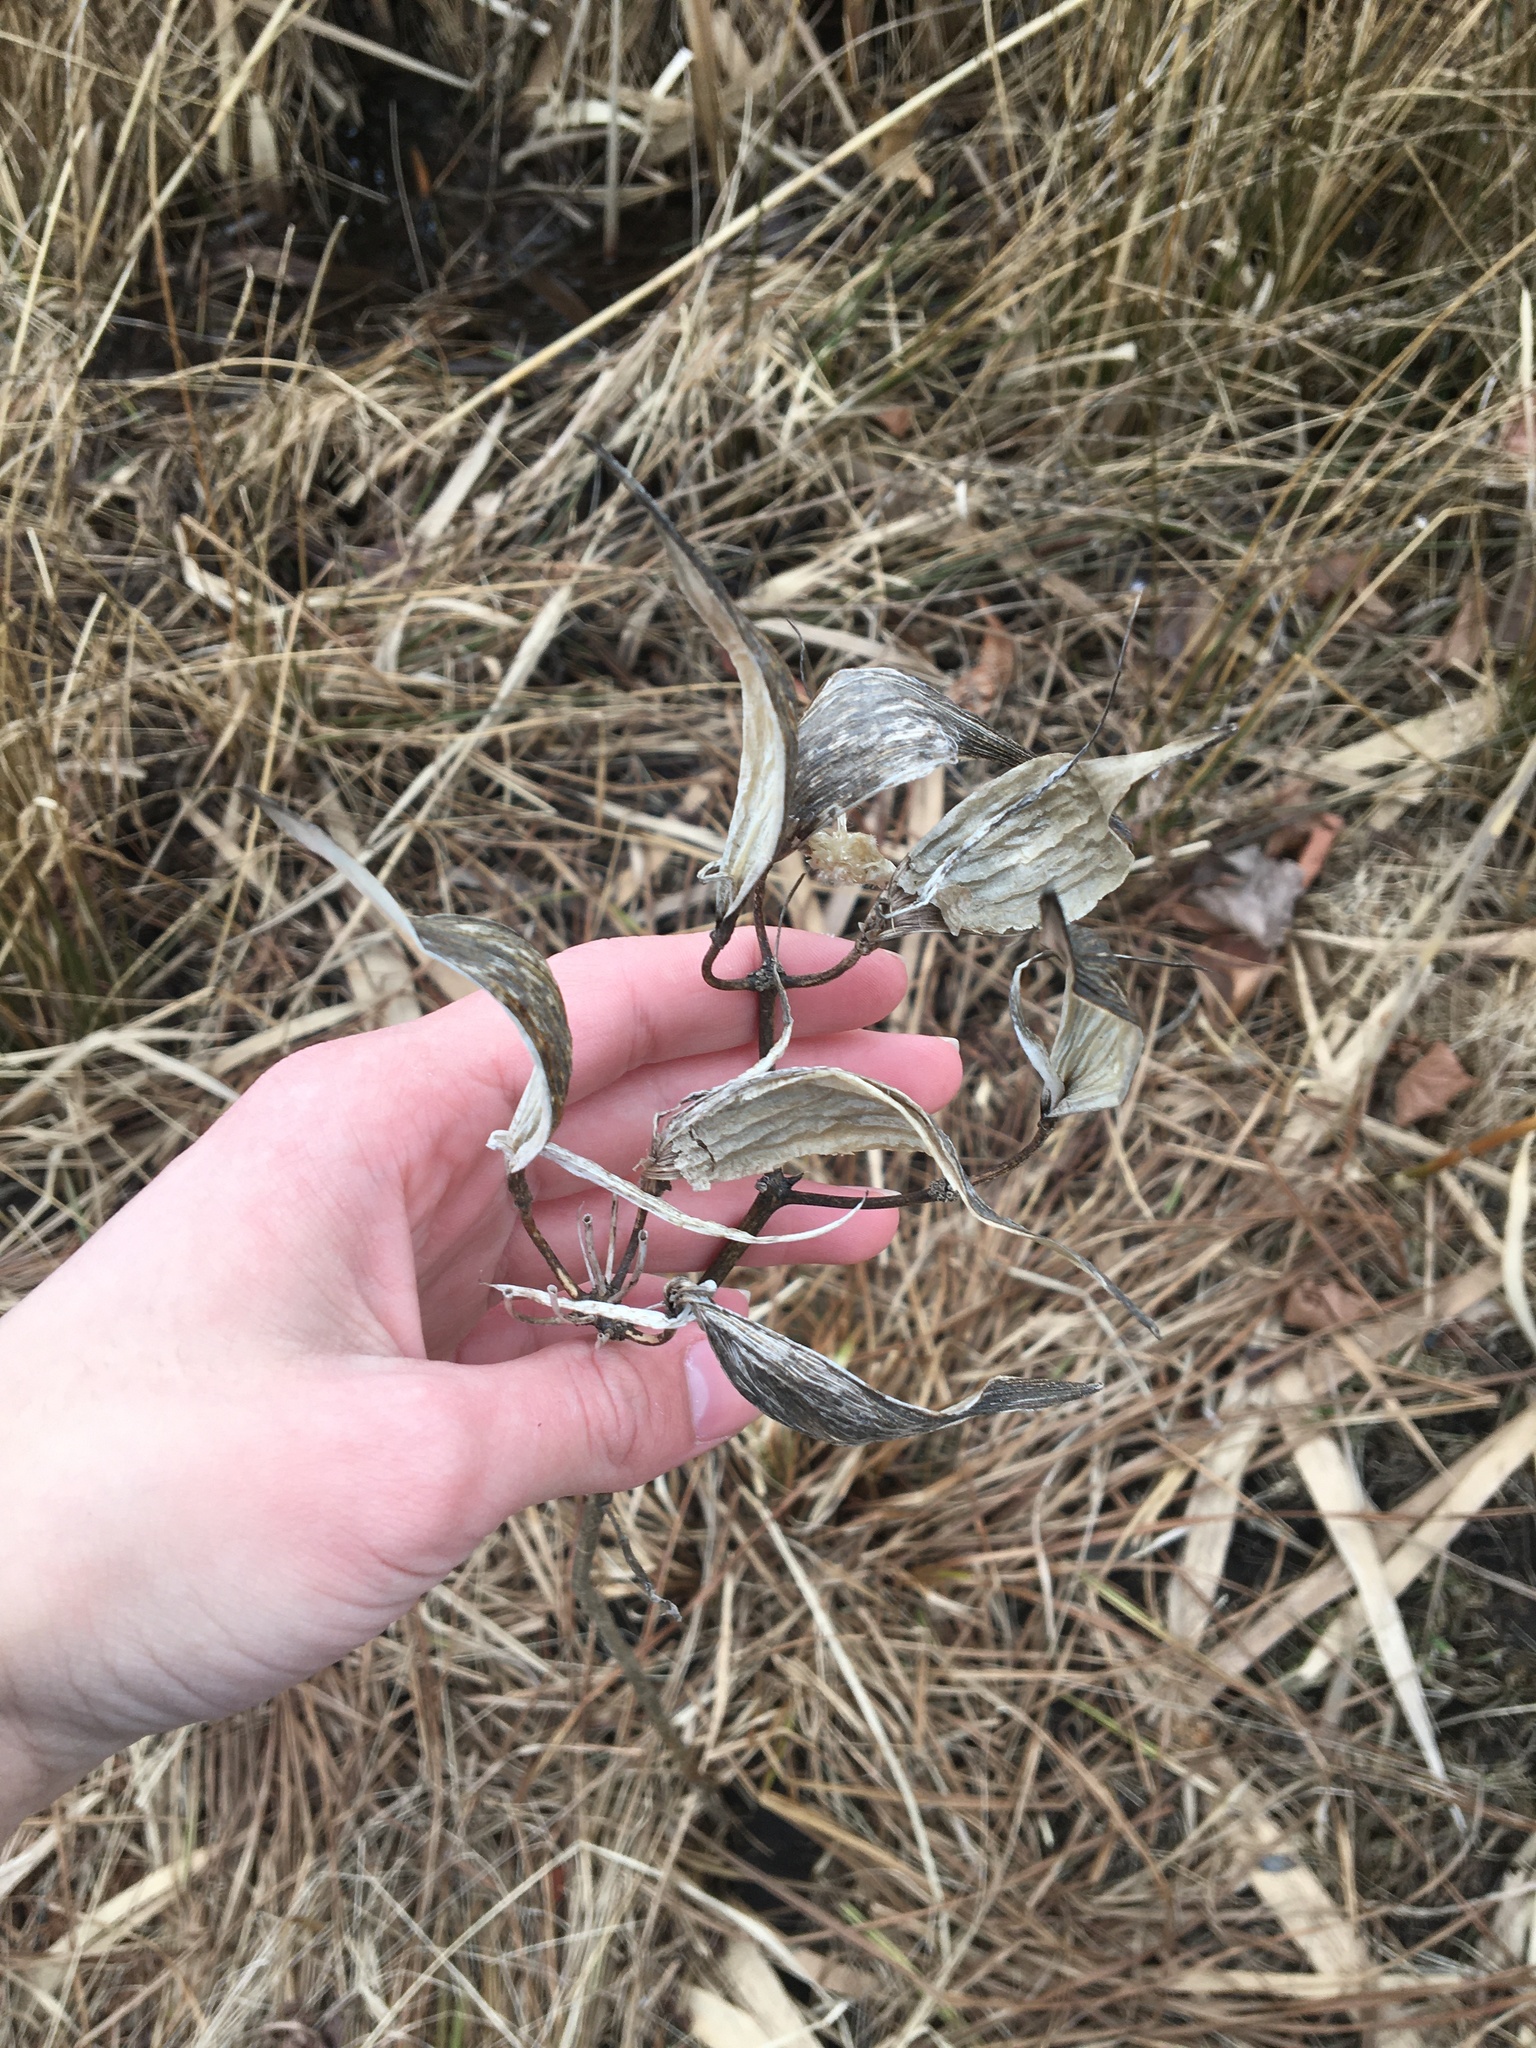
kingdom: Plantae
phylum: Tracheophyta
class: Magnoliopsida
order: Gentianales
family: Apocynaceae
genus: Asclepias
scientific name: Asclepias incarnata
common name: Swamp milkweed
